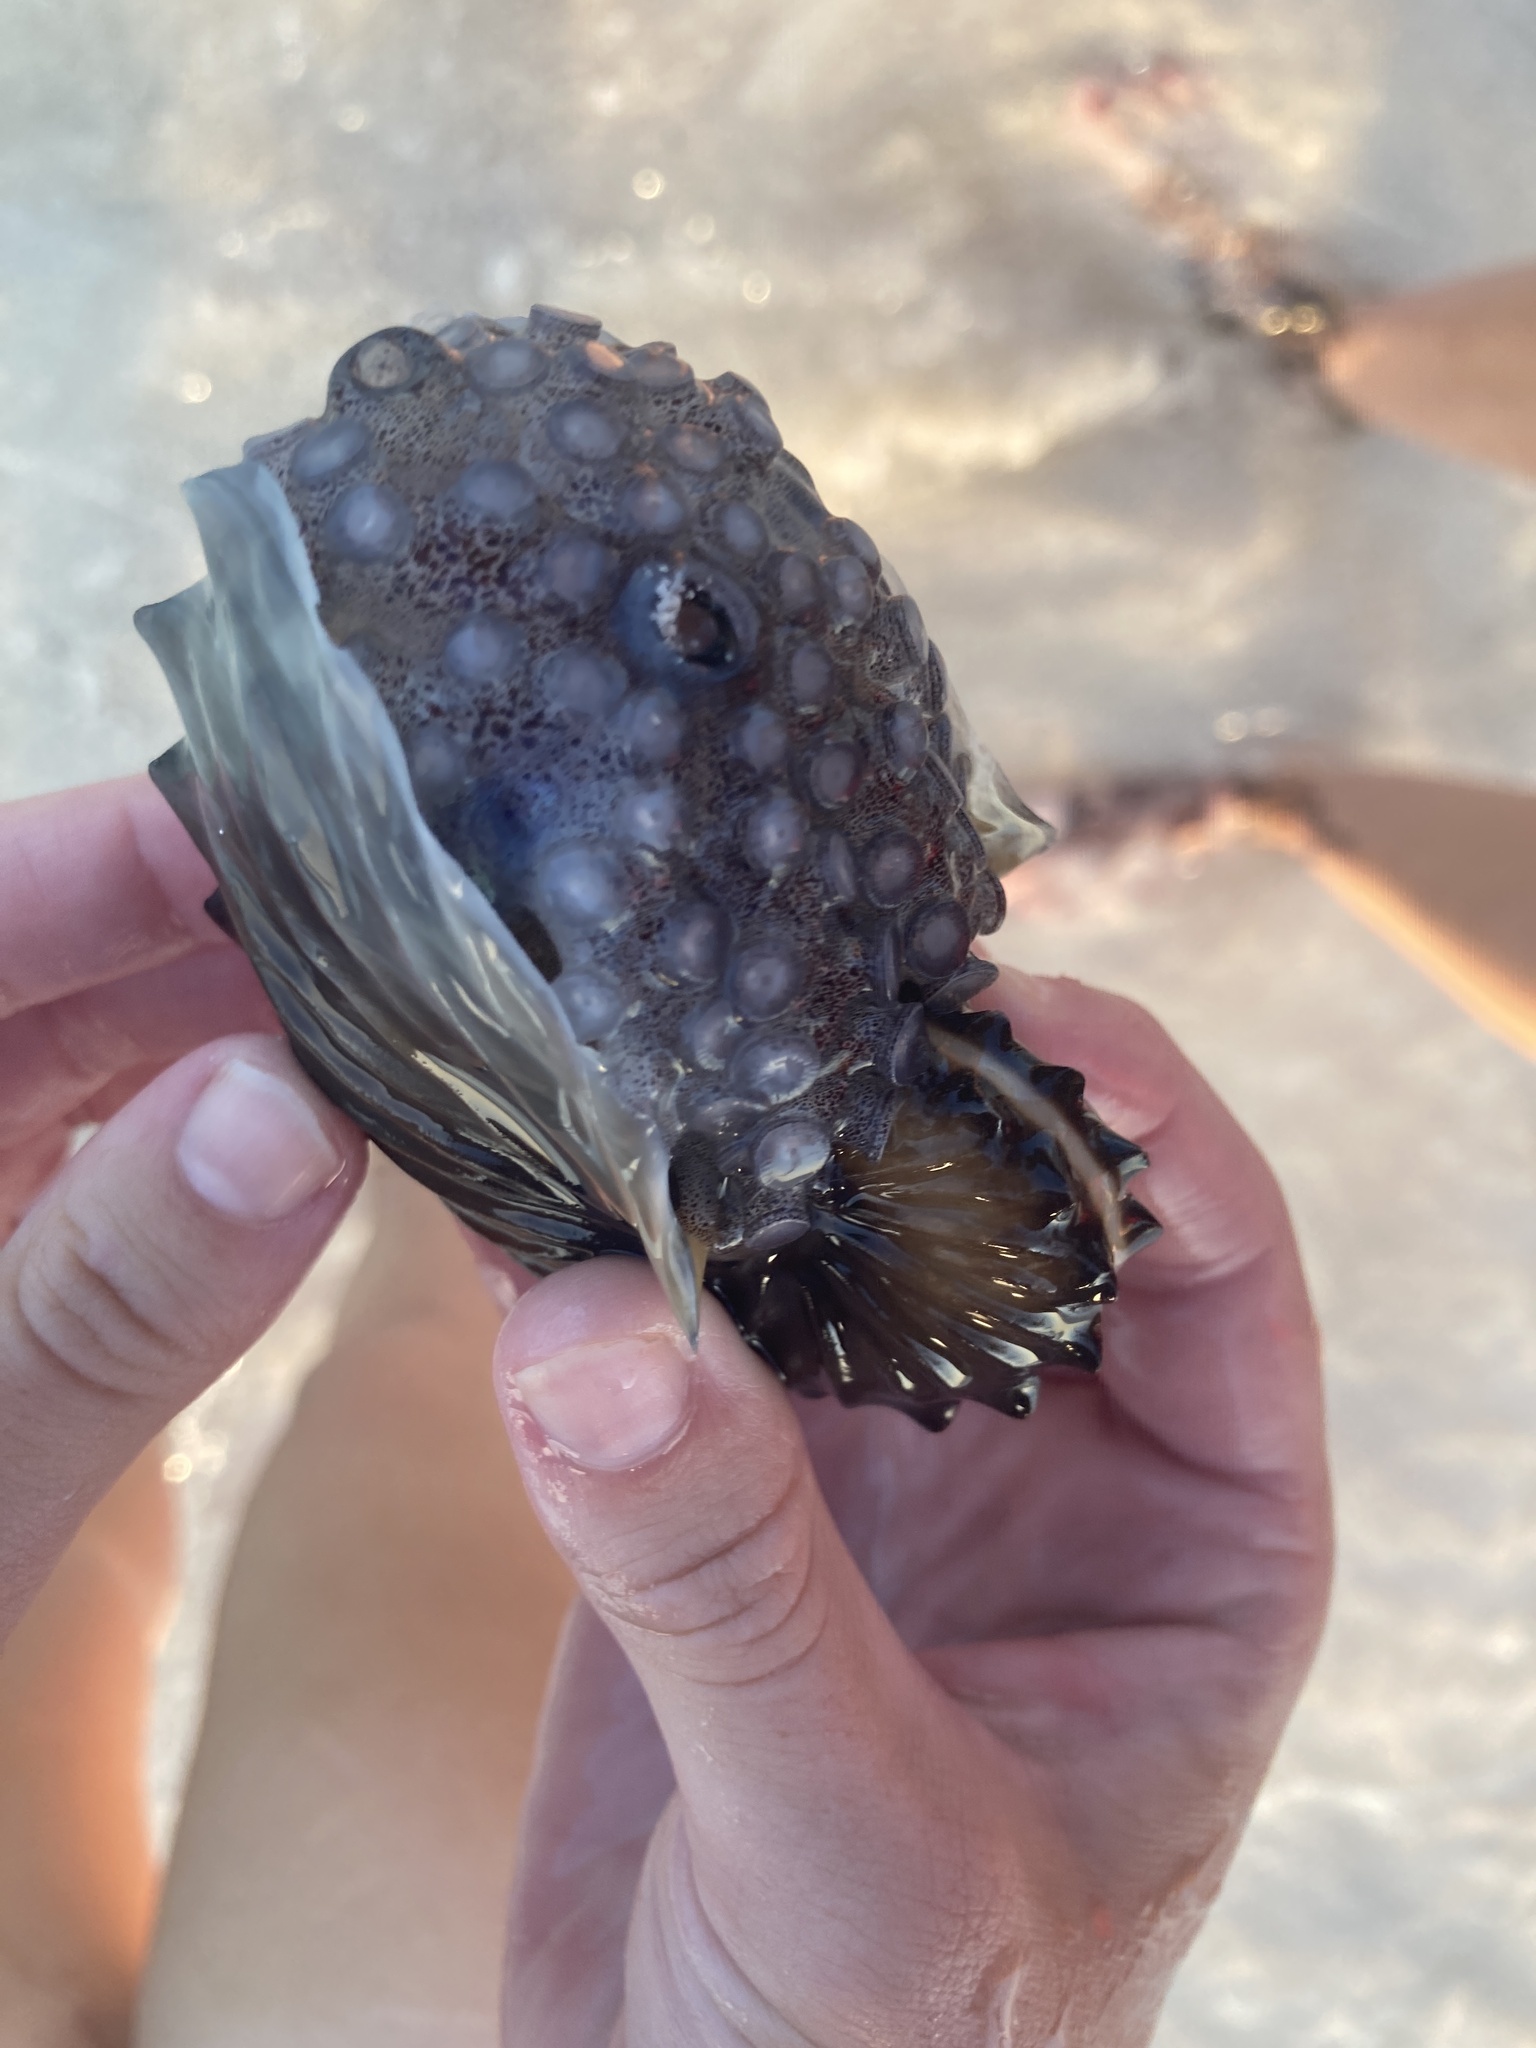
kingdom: Animalia
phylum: Mollusca
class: Cephalopoda
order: Octopoda
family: Argonautidae
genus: Argonauta
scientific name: Argonauta hians
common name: Brown argonaut
